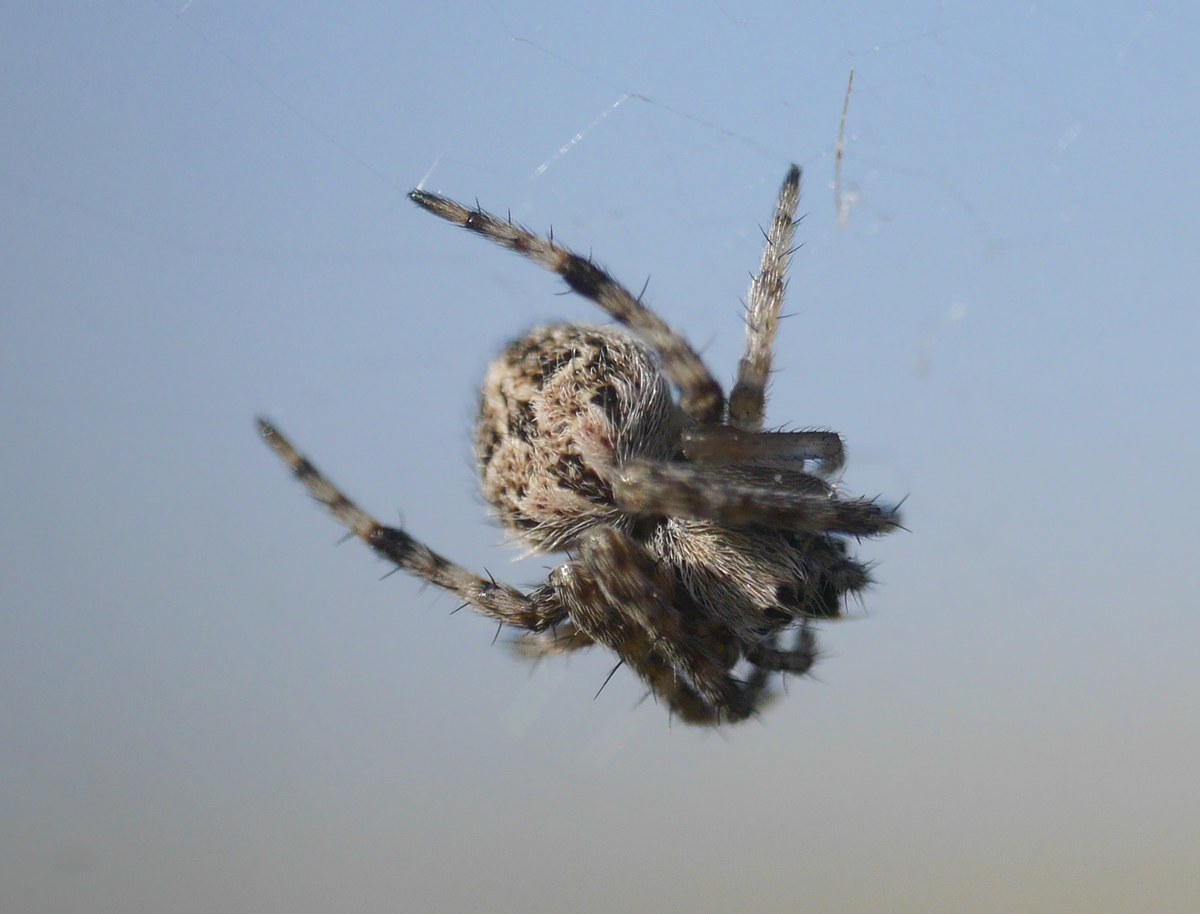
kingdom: Animalia
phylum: Arthropoda
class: Arachnida
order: Araneae
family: Araneidae
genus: Agalenatea
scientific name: Agalenatea redii
